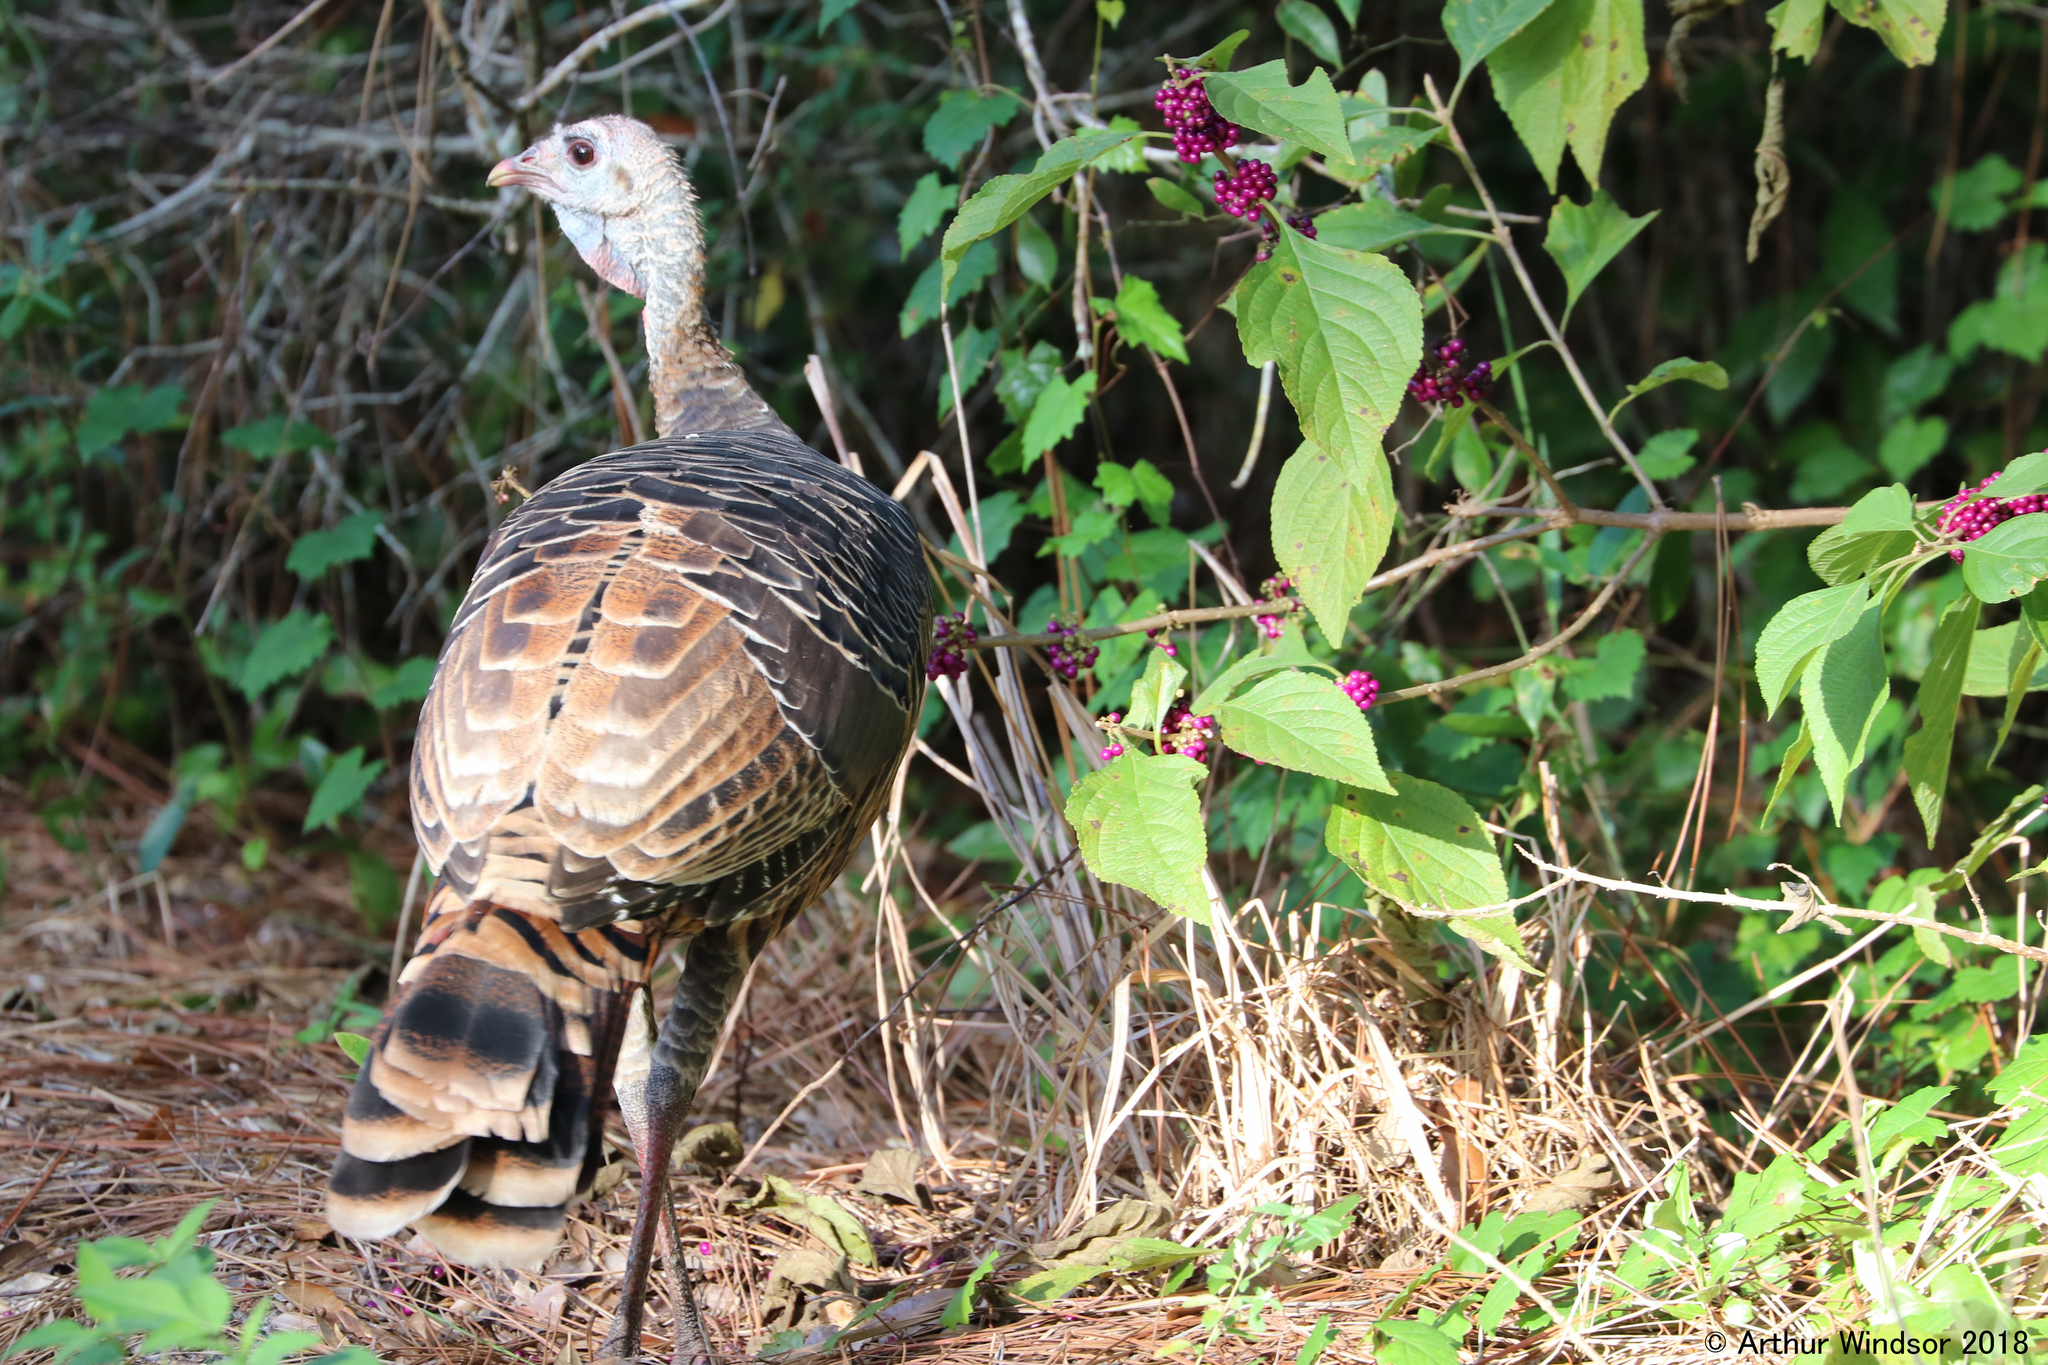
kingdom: Animalia
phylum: Chordata
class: Aves
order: Galliformes
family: Phasianidae
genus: Meleagris
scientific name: Meleagris gallopavo
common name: Wild turkey
